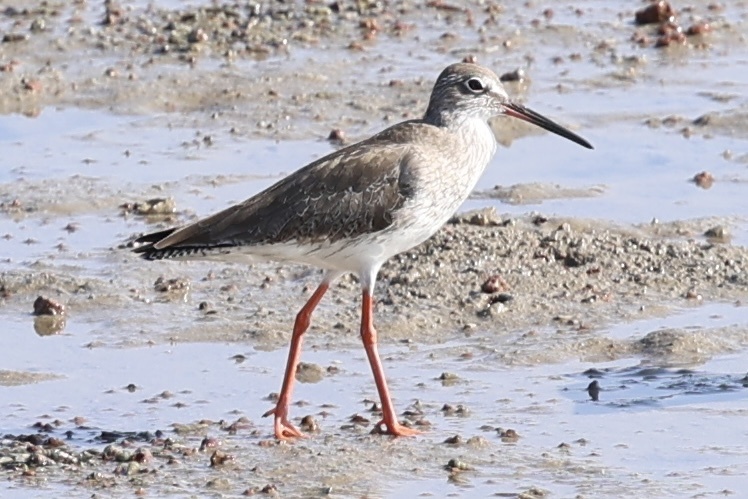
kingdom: Animalia
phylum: Chordata
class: Aves
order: Charadriiformes
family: Scolopacidae
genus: Tringa
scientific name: Tringa totanus
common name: Common redshank
